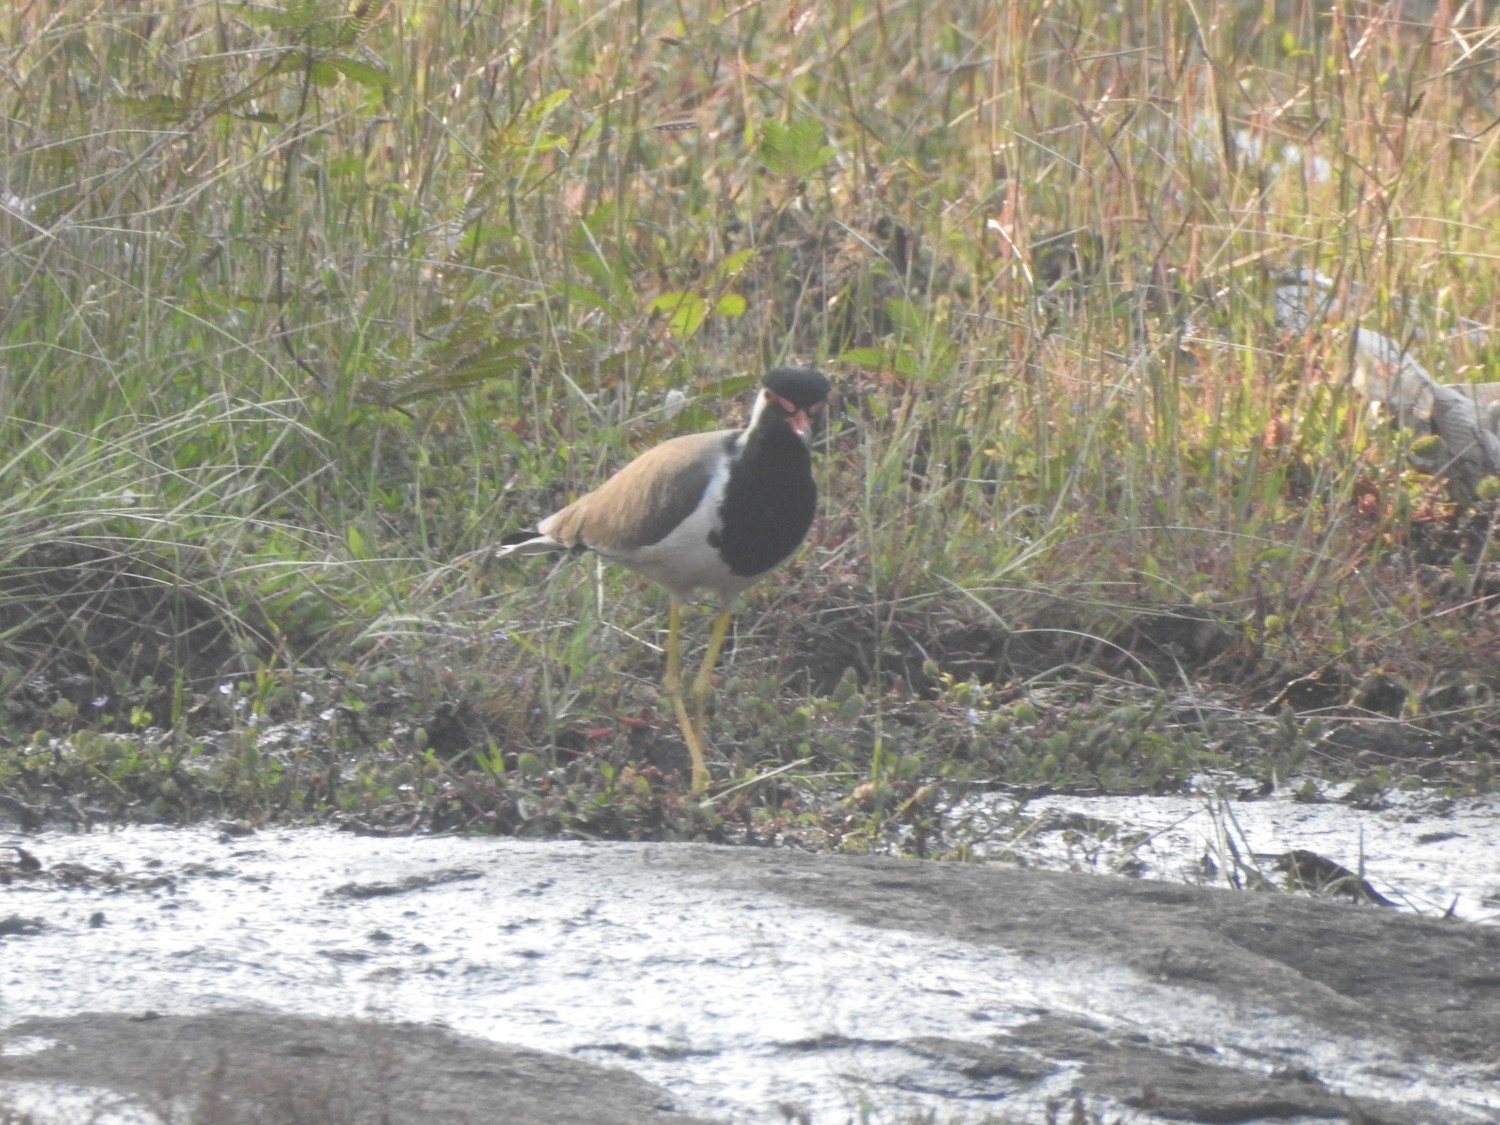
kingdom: Animalia
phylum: Chordata
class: Aves
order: Charadriiformes
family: Charadriidae
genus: Vanellus
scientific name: Vanellus indicus
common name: Red-wattled lapwing
